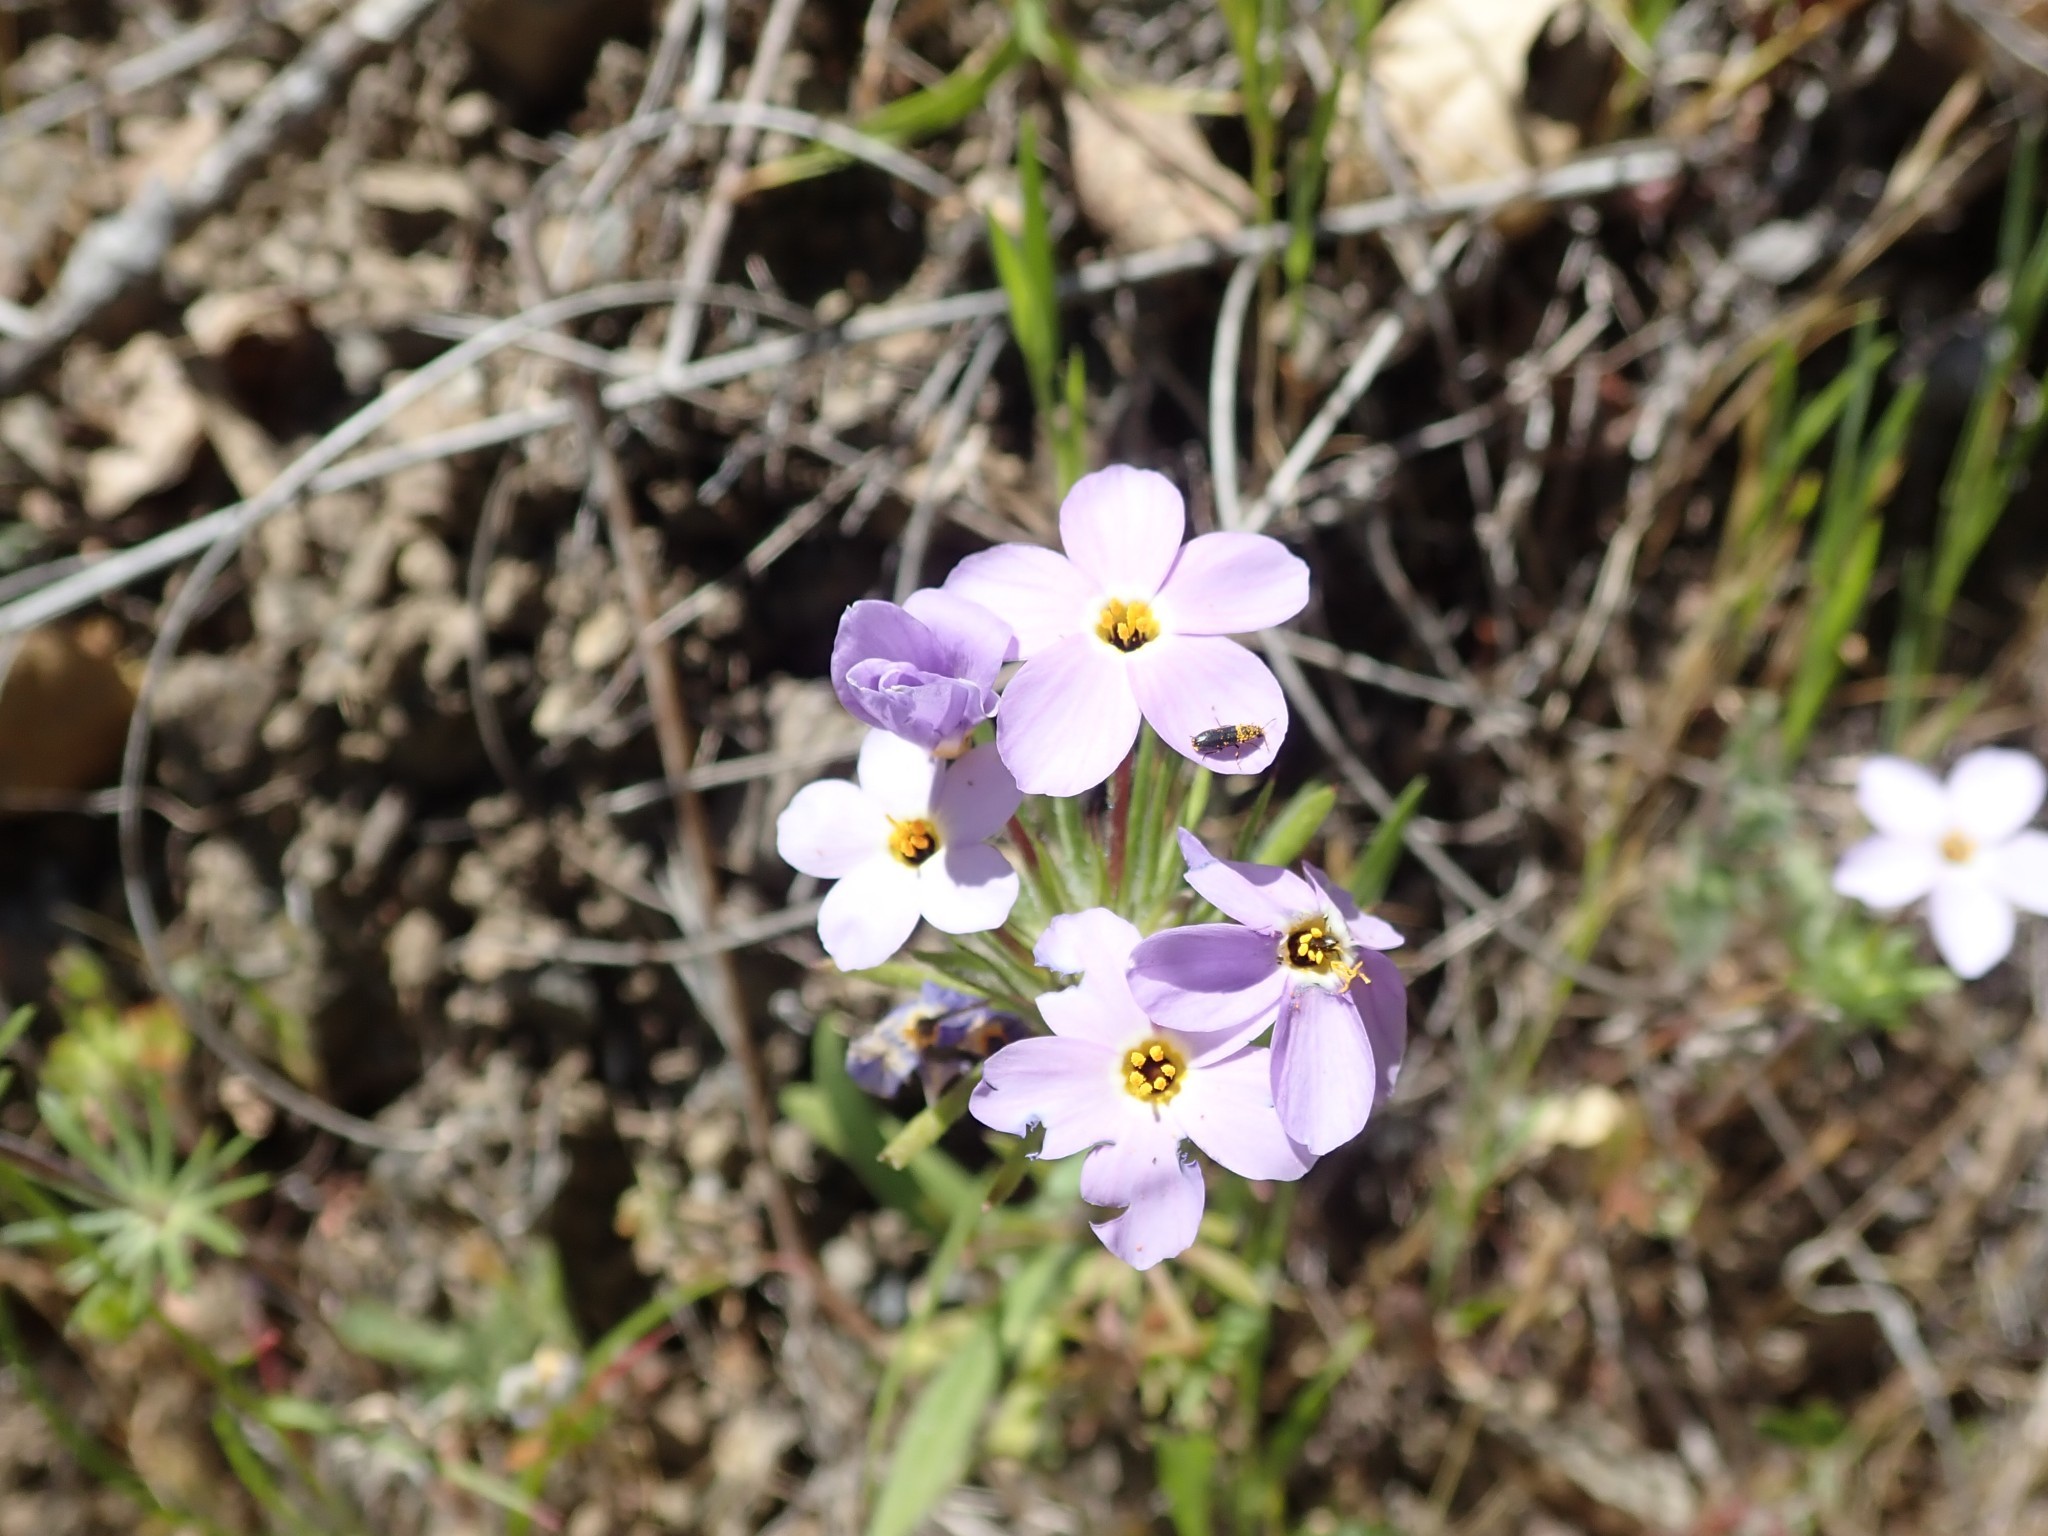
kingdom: Plantae
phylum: Tracheophyta
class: Magnoliopsida
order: Ericales
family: Polemoniaceae
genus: Leptosiphon
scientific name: Leptosiphon androsaceus
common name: False babystars
